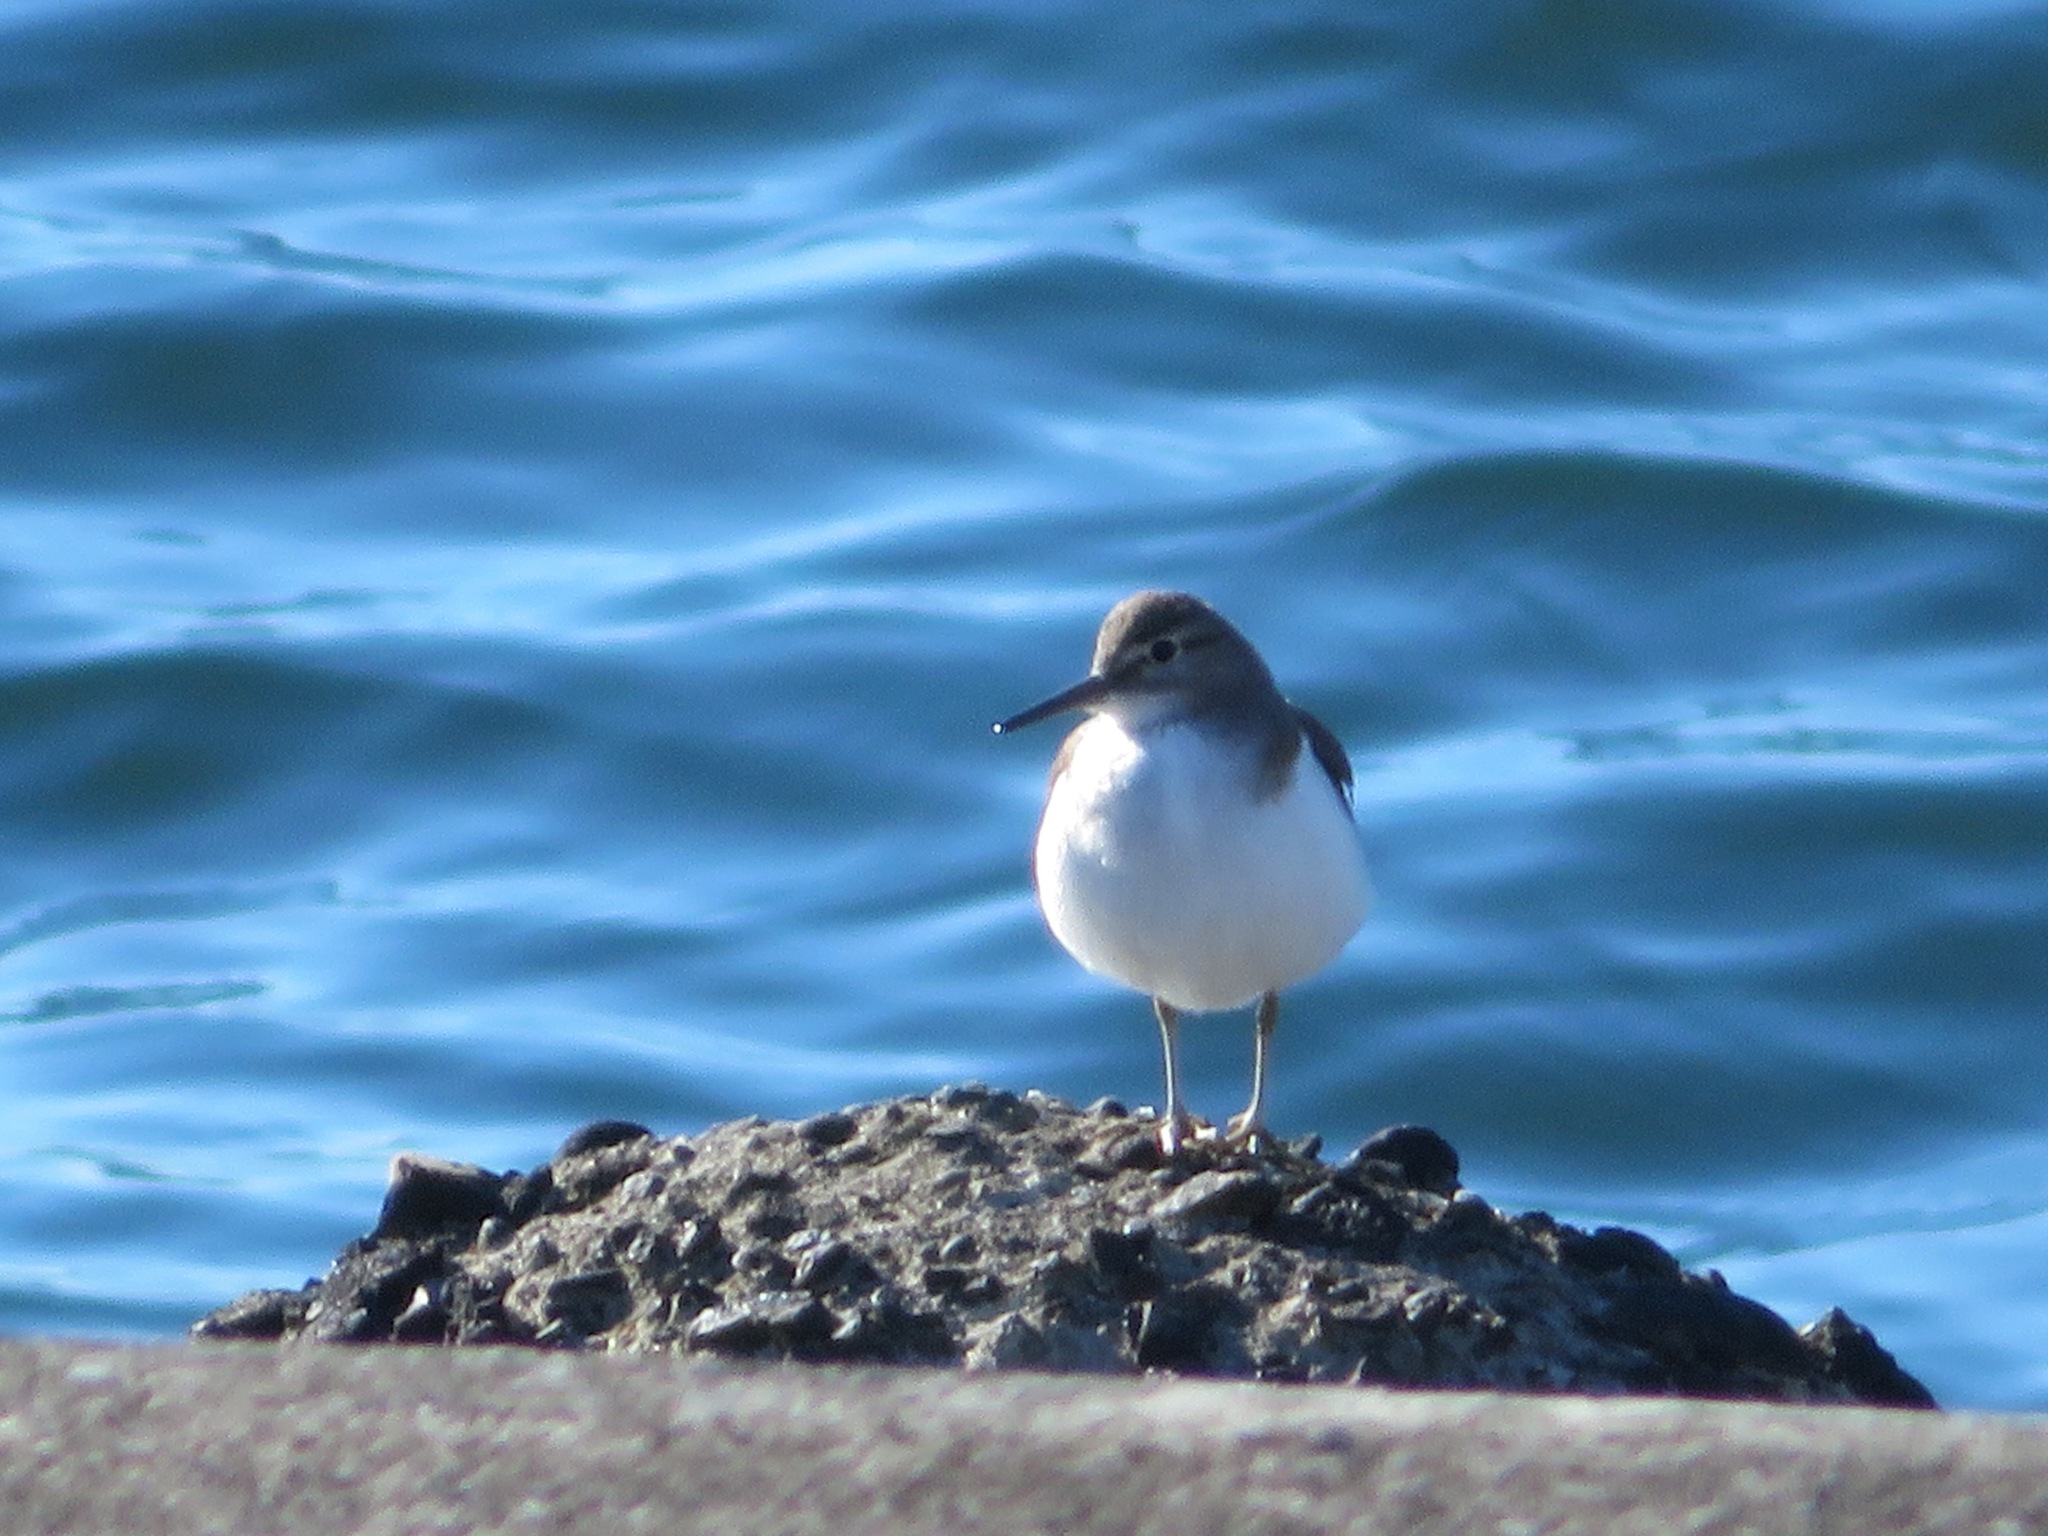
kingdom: Animalia
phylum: Chordata
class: Aves
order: Charadriiformes
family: Scolopacidae
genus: Actitis
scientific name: Actitis hypoleucos
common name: Common sandpiper
